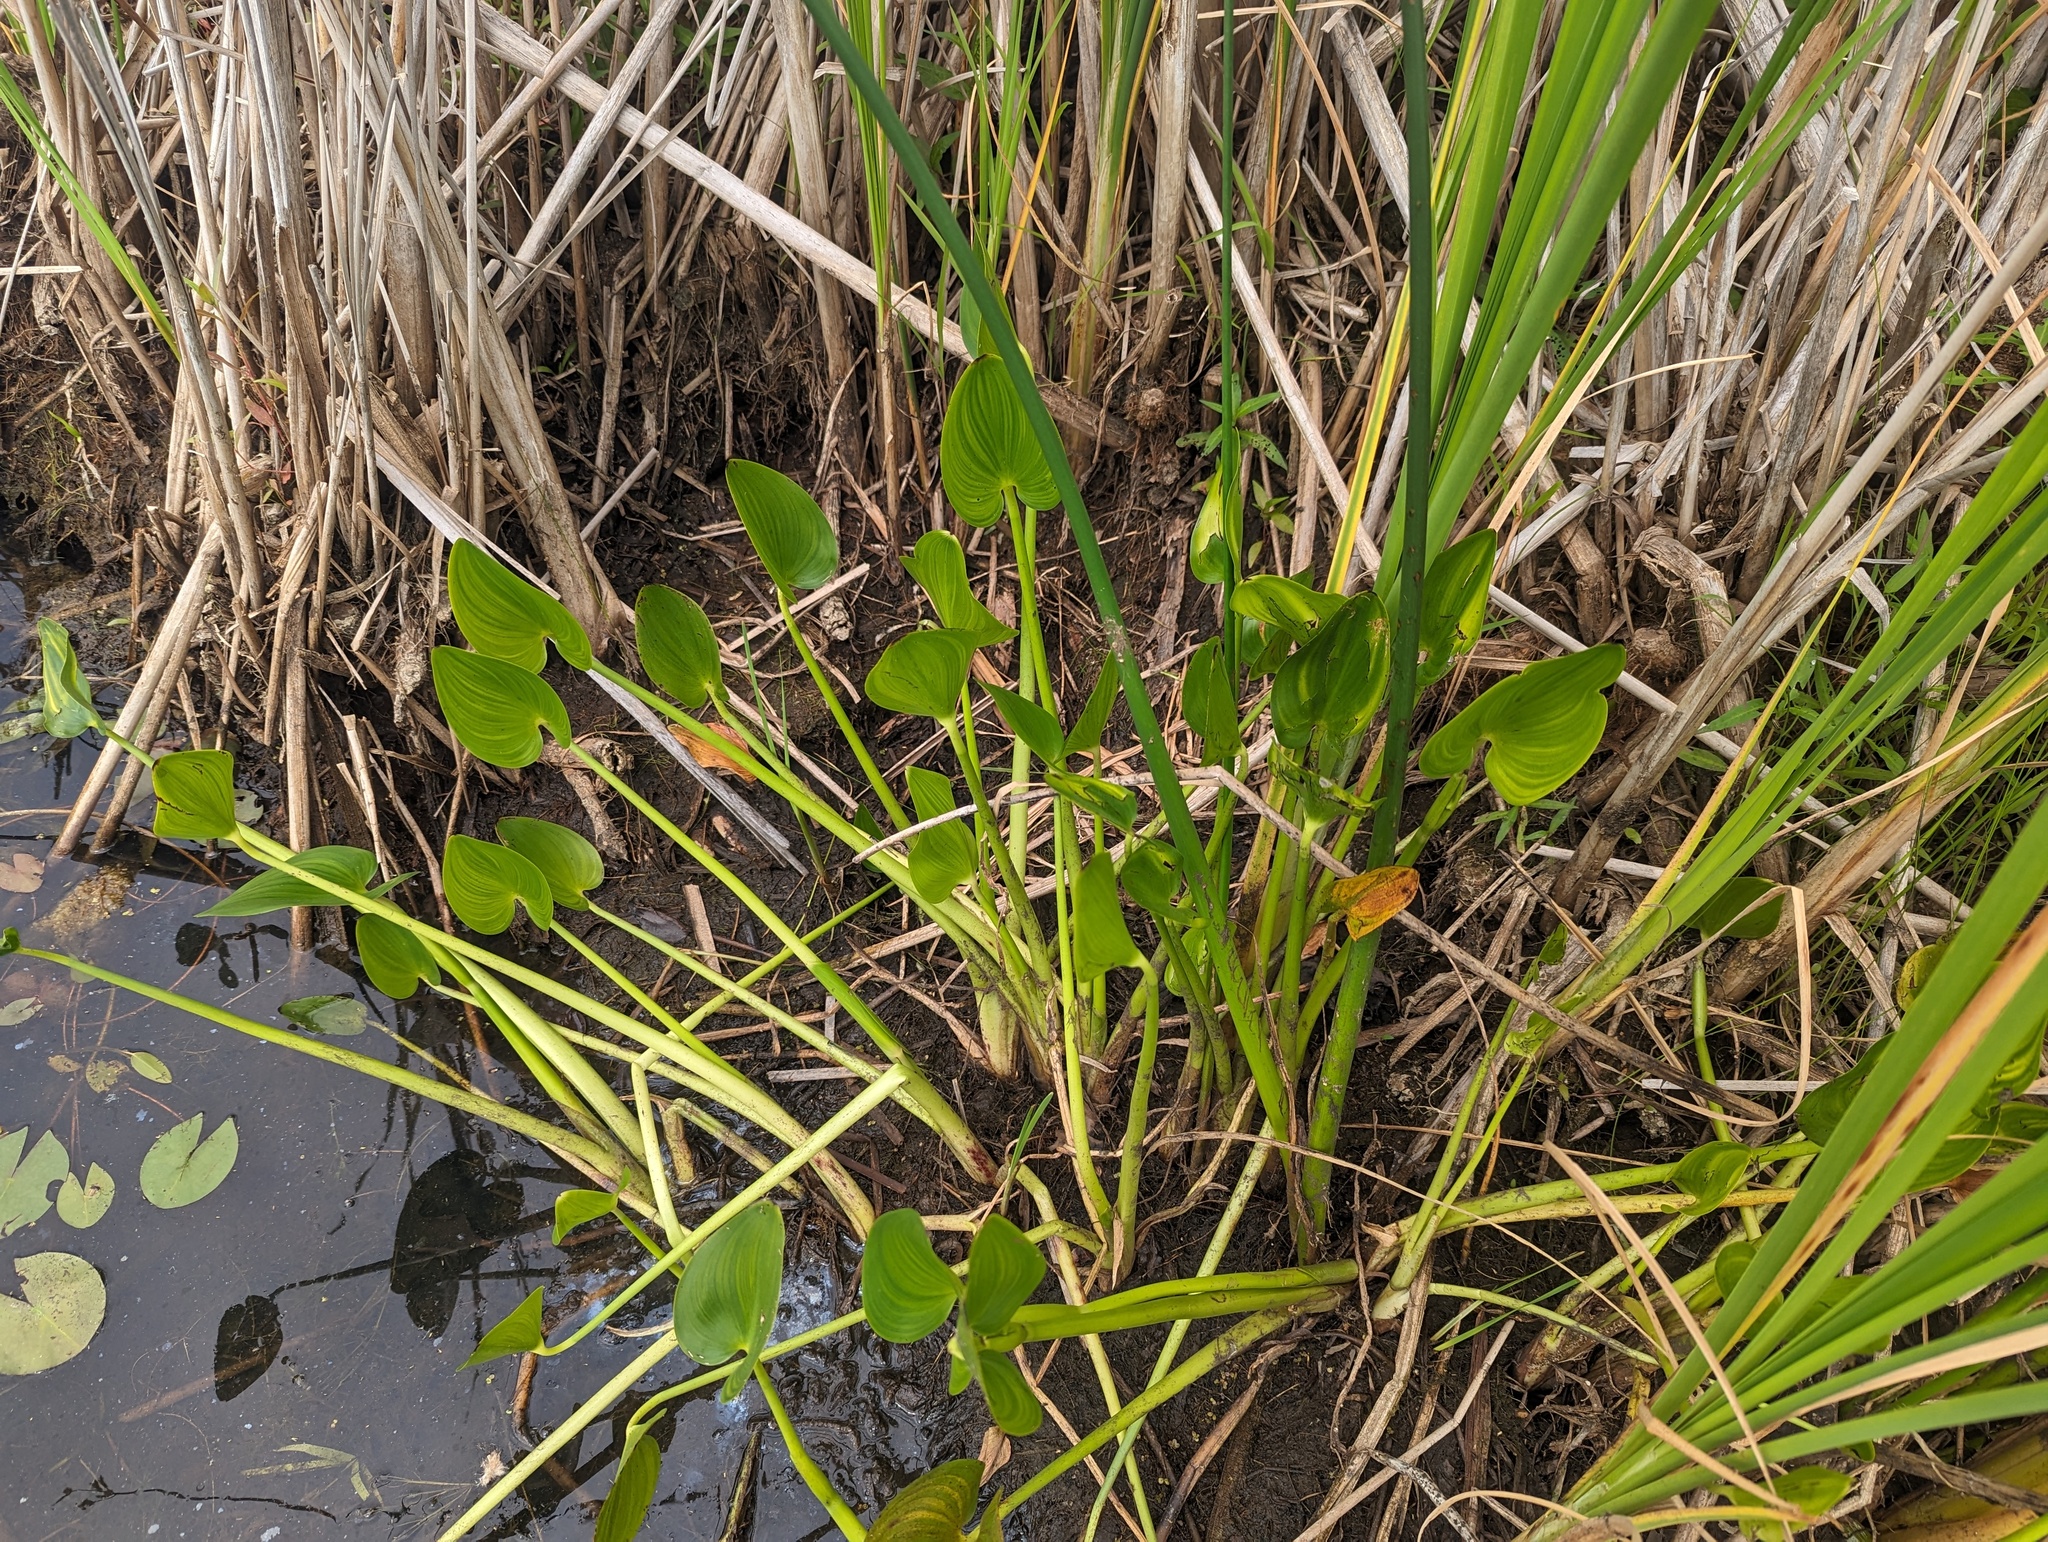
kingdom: Plantae
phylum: Tracheophyta
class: Liliopsida
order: Commelinales
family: Pontederiaceae
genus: Pontederia
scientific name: Pontederia cordata
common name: Pickerelweed
